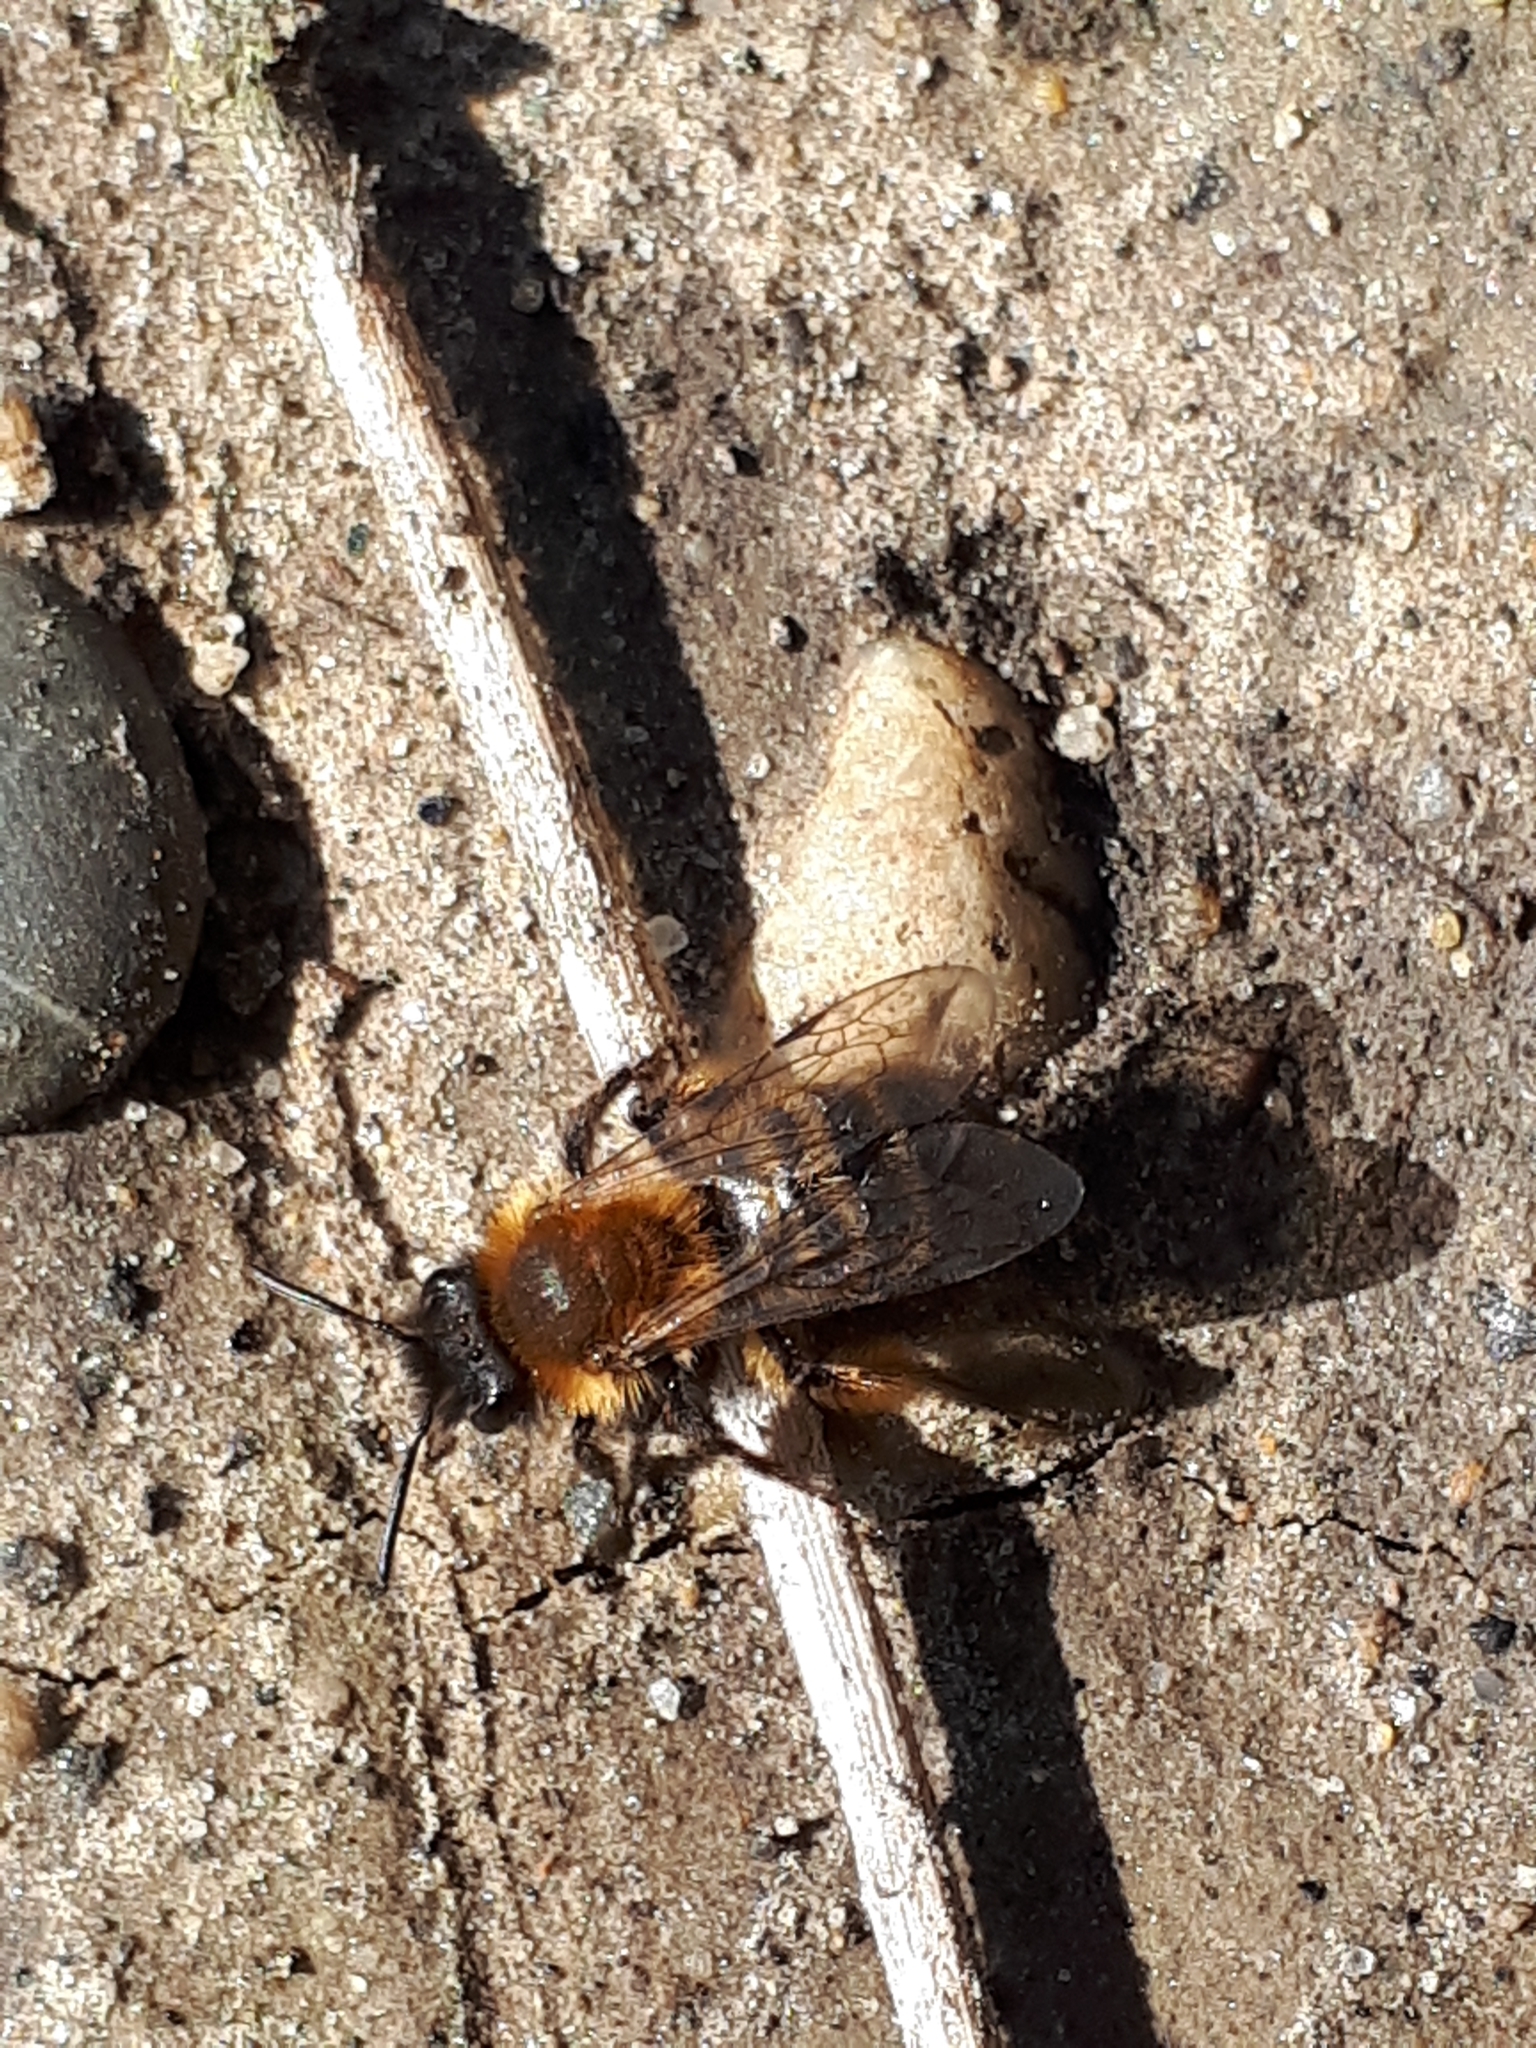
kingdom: Animalia
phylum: Arthropoda
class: Insecta
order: Hymenoptera
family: Andrenidae
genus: Andrena
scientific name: Andrena bicolor
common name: Gwynne's mining bee
